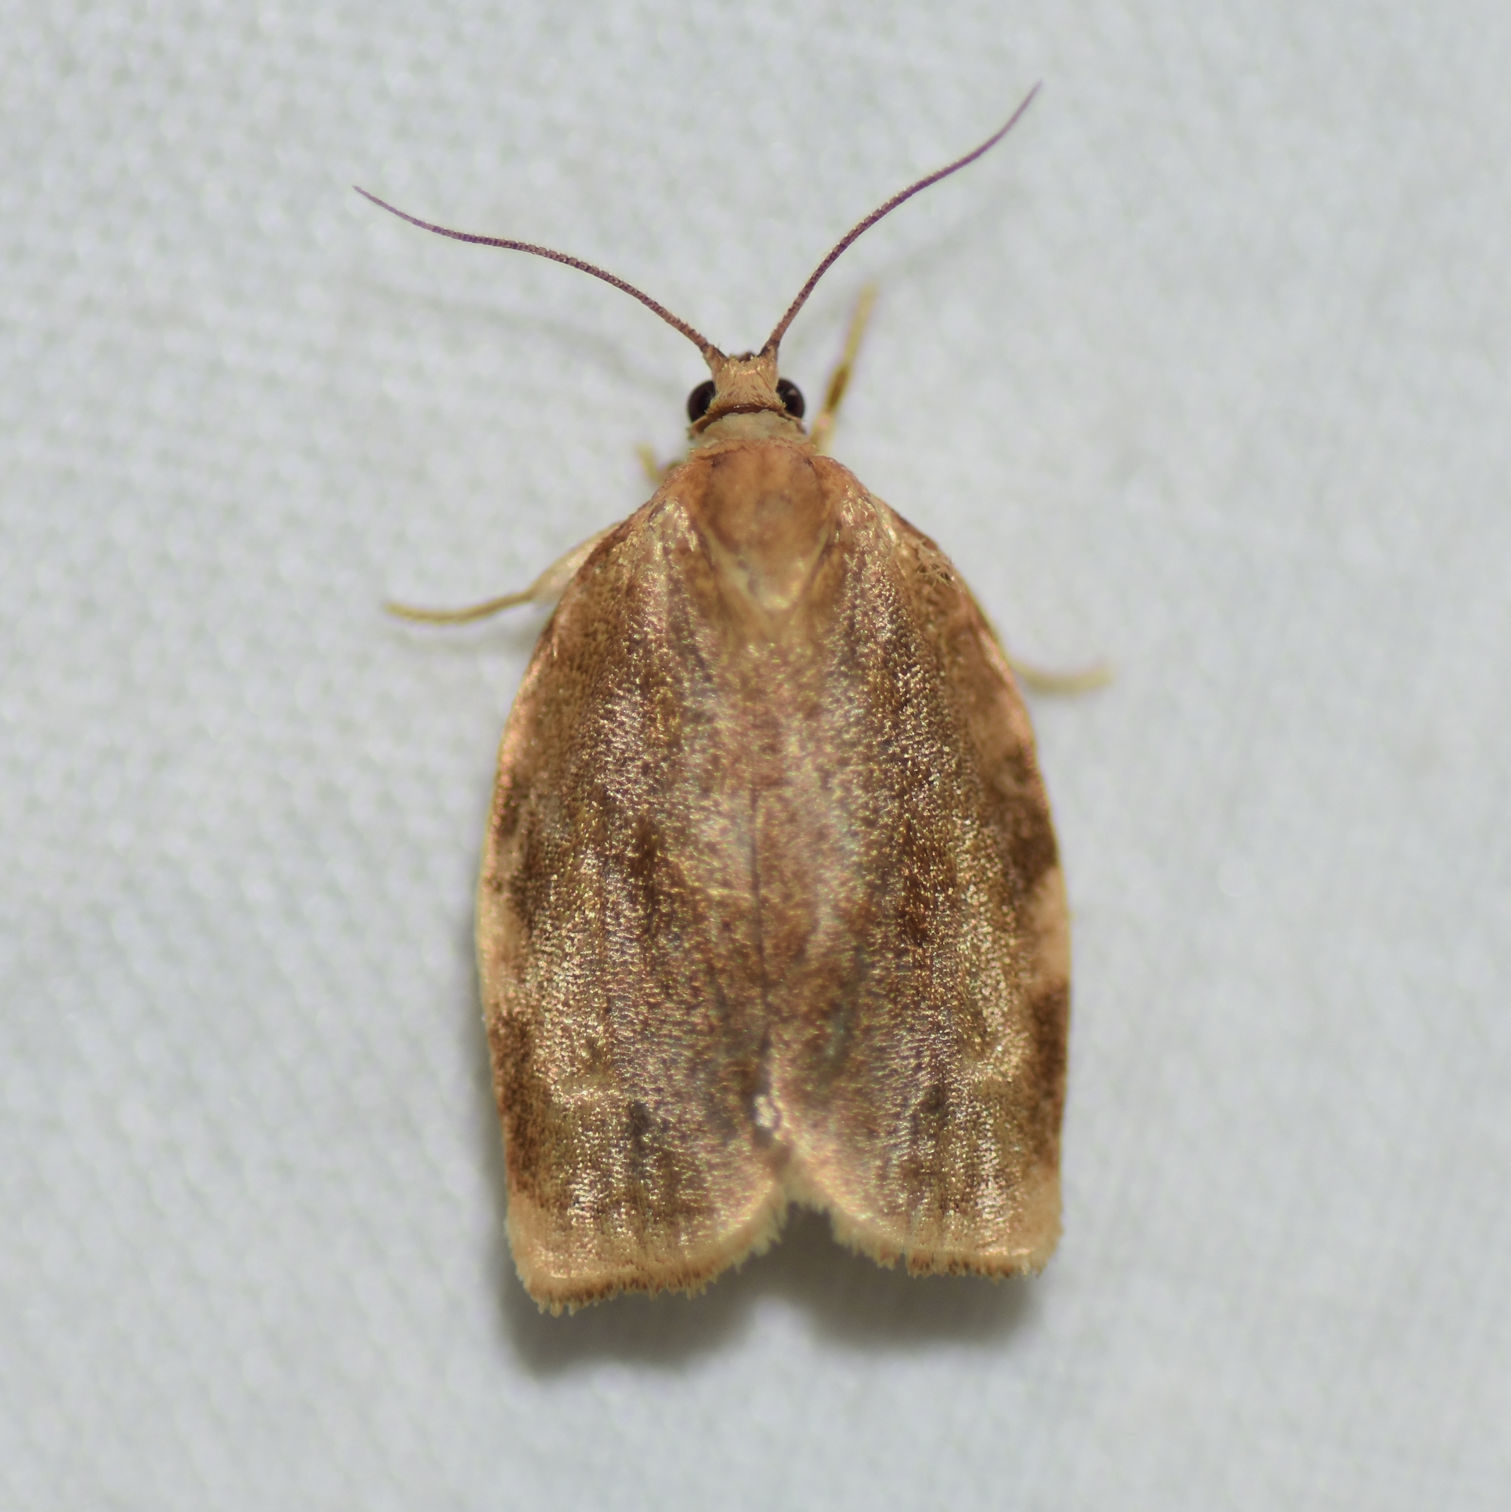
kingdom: Animalia
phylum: Arthropoda
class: Insecta
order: Lepidoptera
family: Tortricidae
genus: Choristoneura
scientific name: Choristoneura fractivittana
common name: Broken-banded leafroller moth
